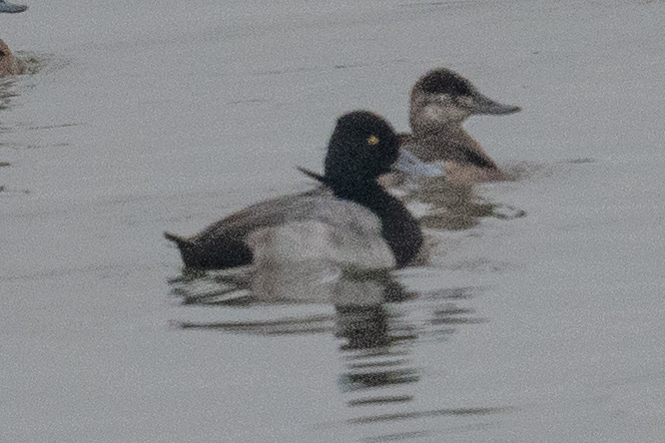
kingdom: Animalia
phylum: Chordata
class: Aves
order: Anseriformes
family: Anatidae
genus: Aythya
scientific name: Aythya affinis
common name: Lesser scaup
